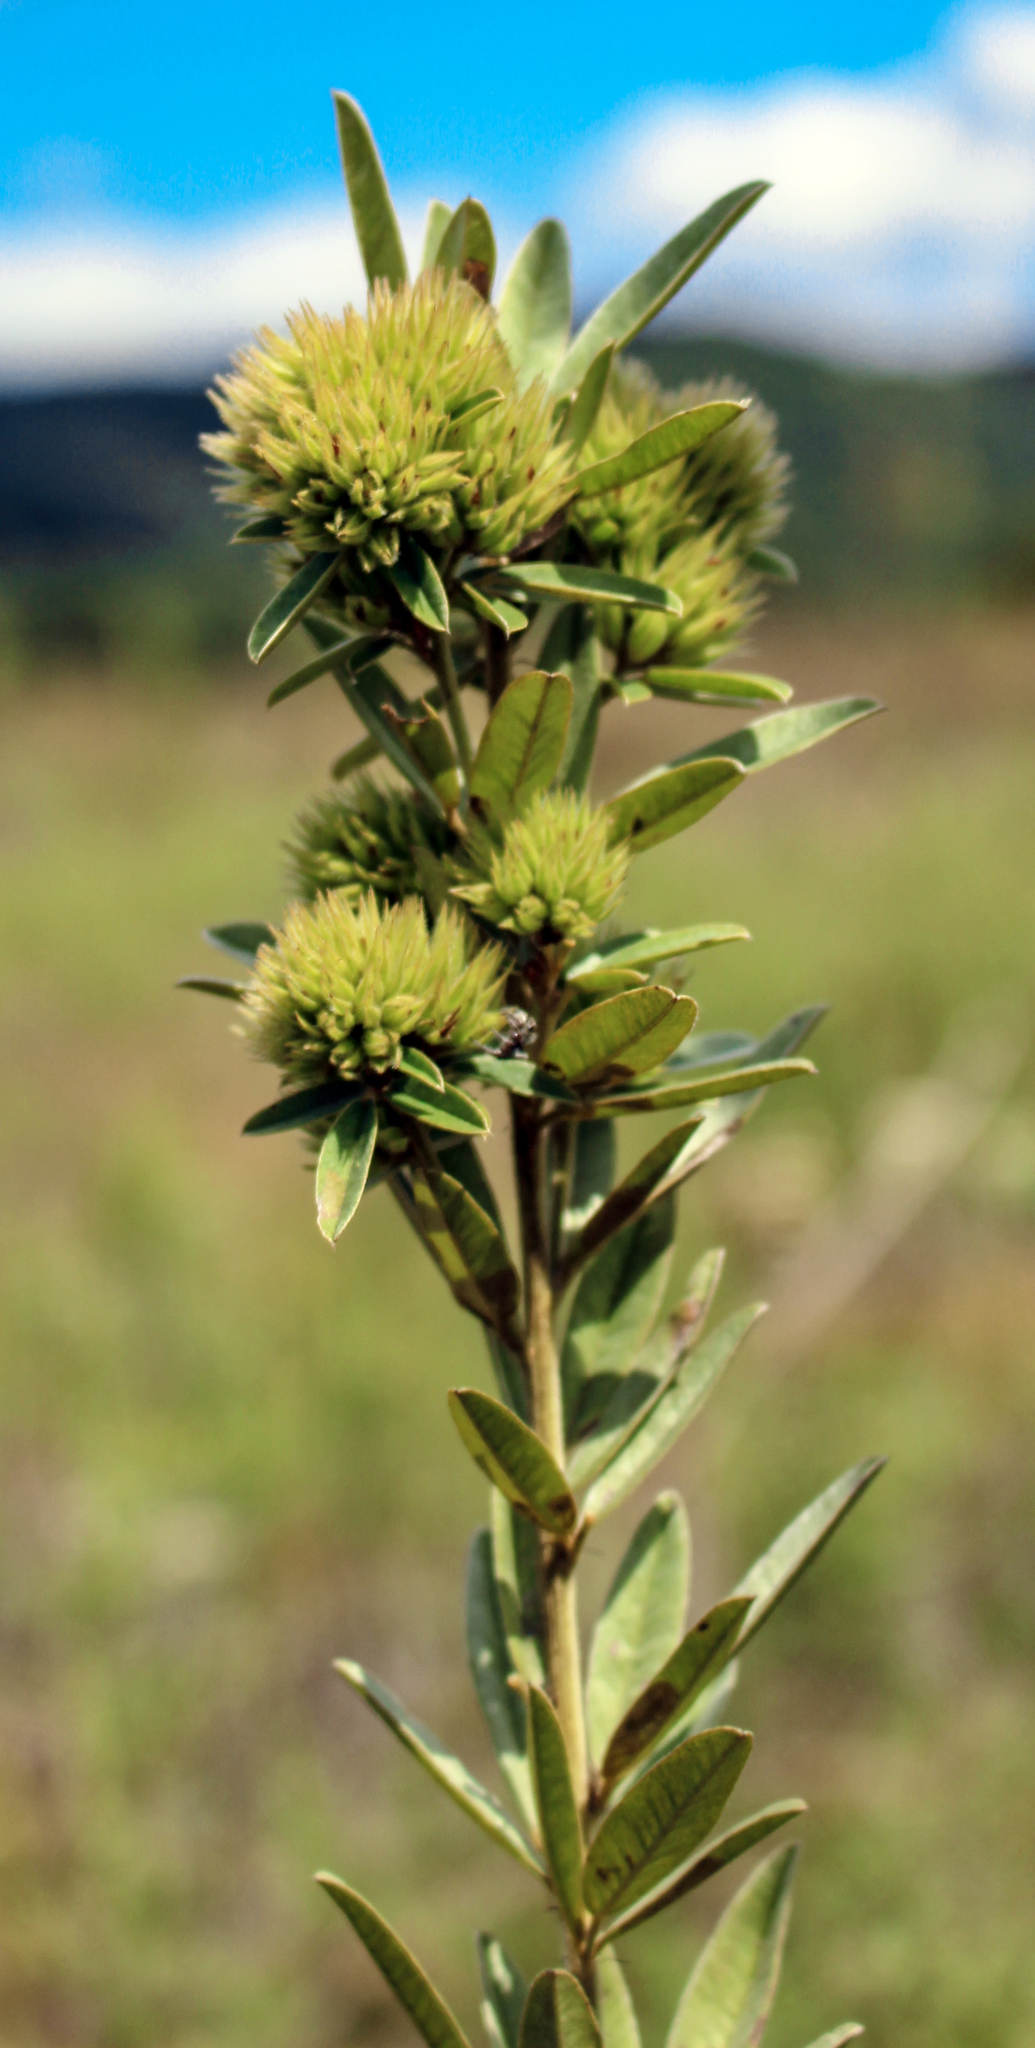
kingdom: Plantae
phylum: Tracheophyta
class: Magnoliopsida
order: Fabales
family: Fabaceae
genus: Lespedeza
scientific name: Lespedeza capitata
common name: Dusty clover
